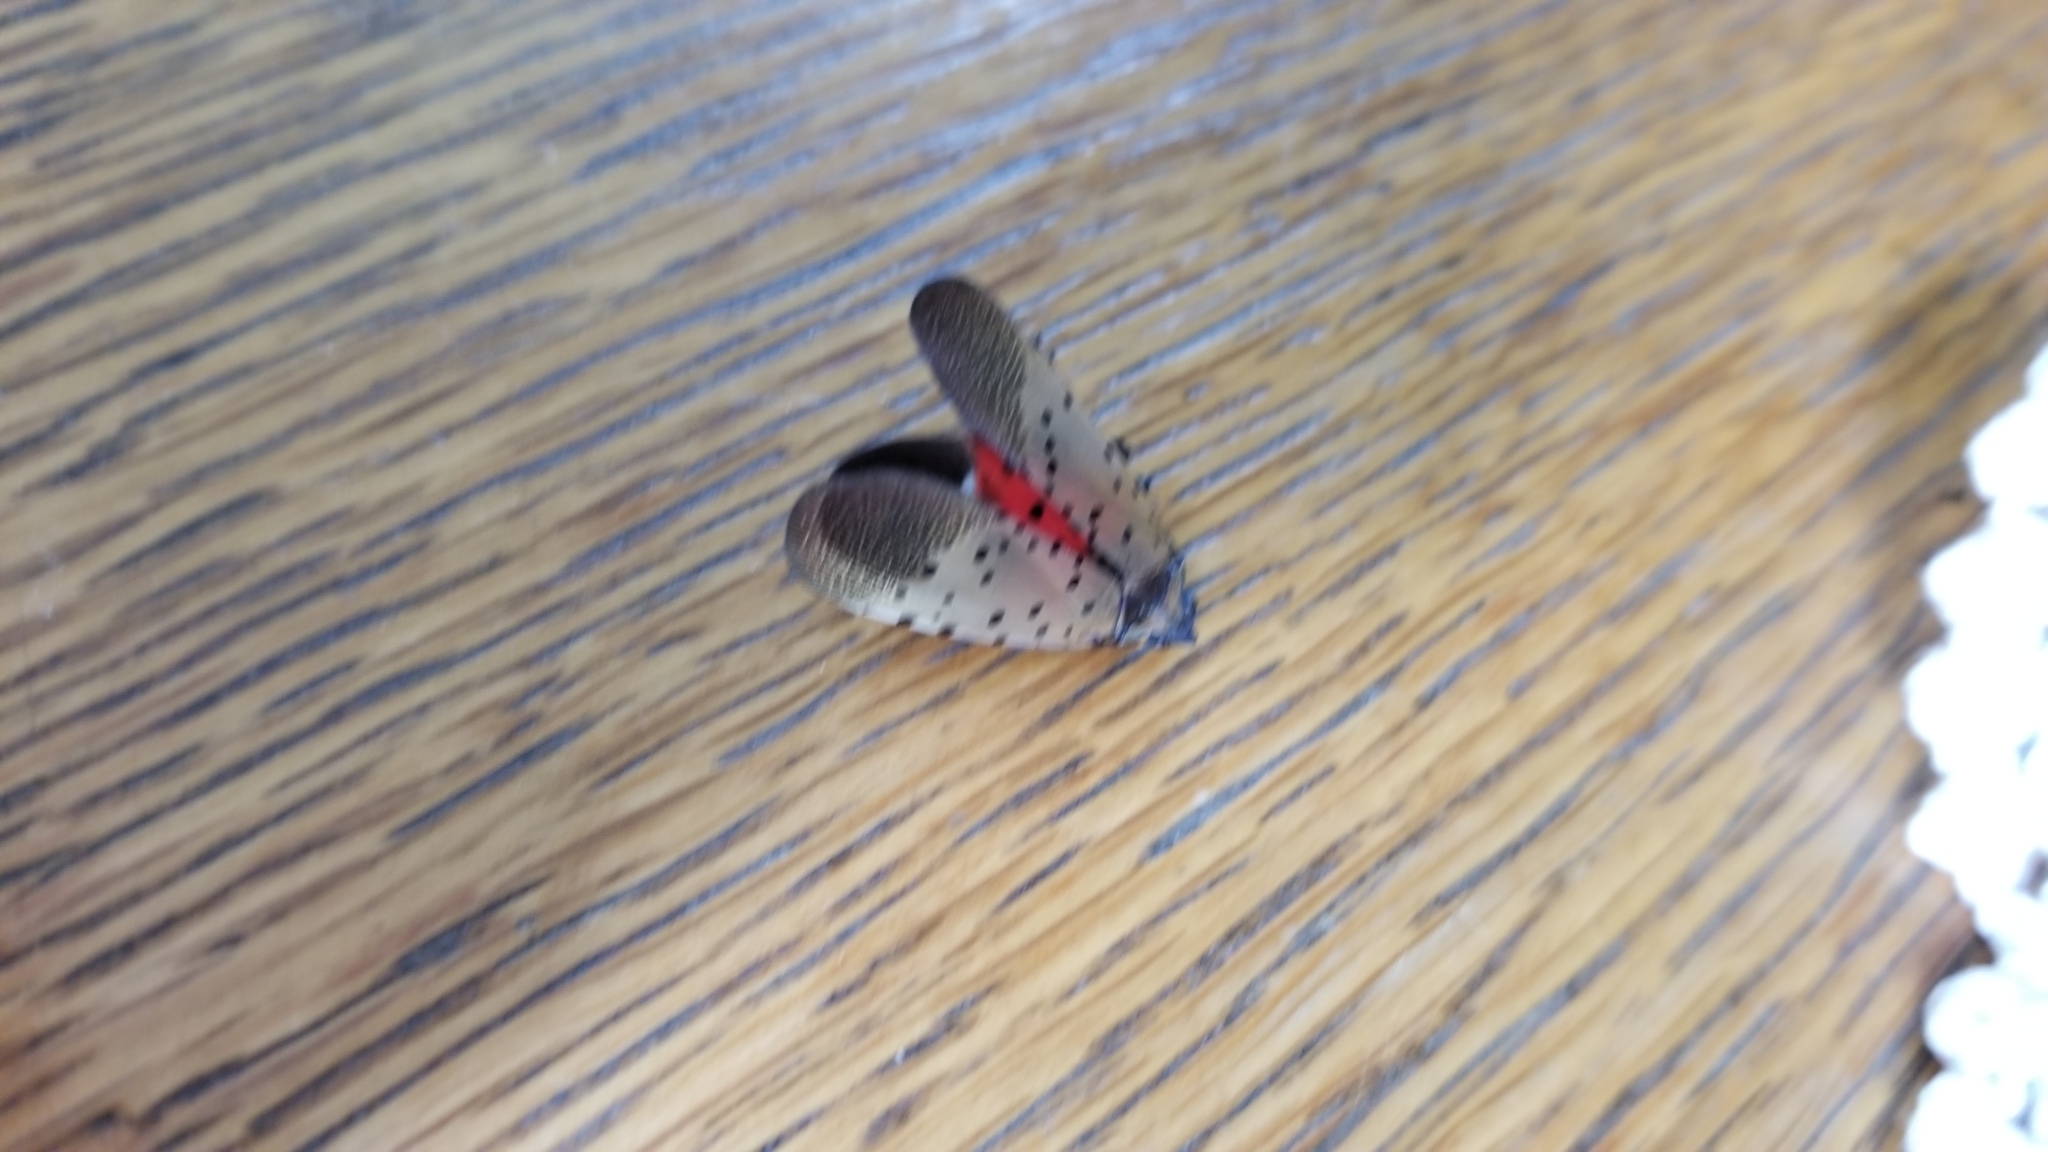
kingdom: Animalia
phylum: Arthropoda
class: Insecta
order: Hemiptera
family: Fulgoridae
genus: Lycorma
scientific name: Lycorma delicatula
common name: Spotted lanternfly
